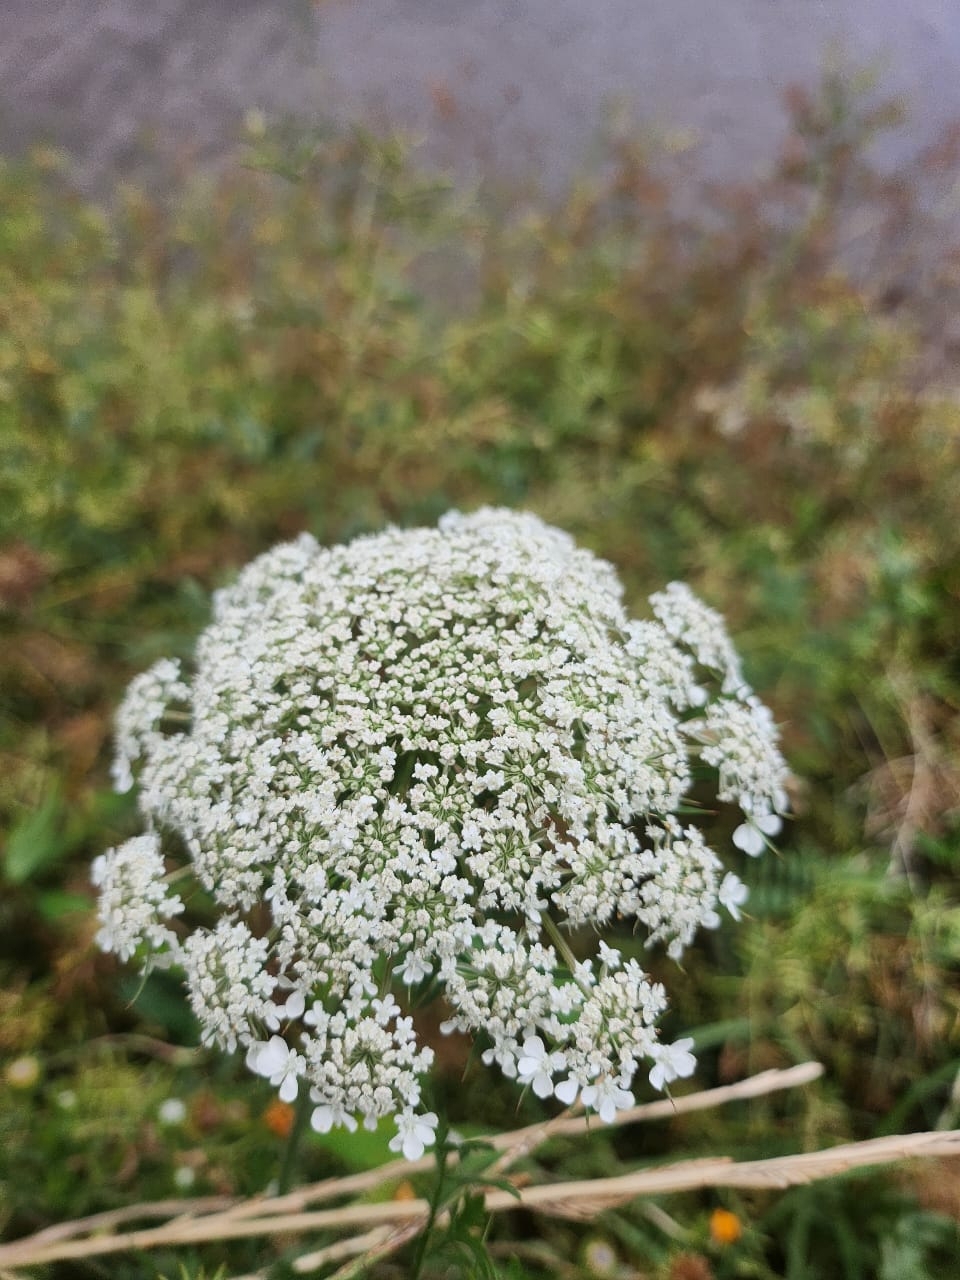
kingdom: Plantae
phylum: Tracheophyta
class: Magnoliopsida
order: Apiales
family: Apiaceae
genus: Daucus
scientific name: Daucus carota
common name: Wild carrot
